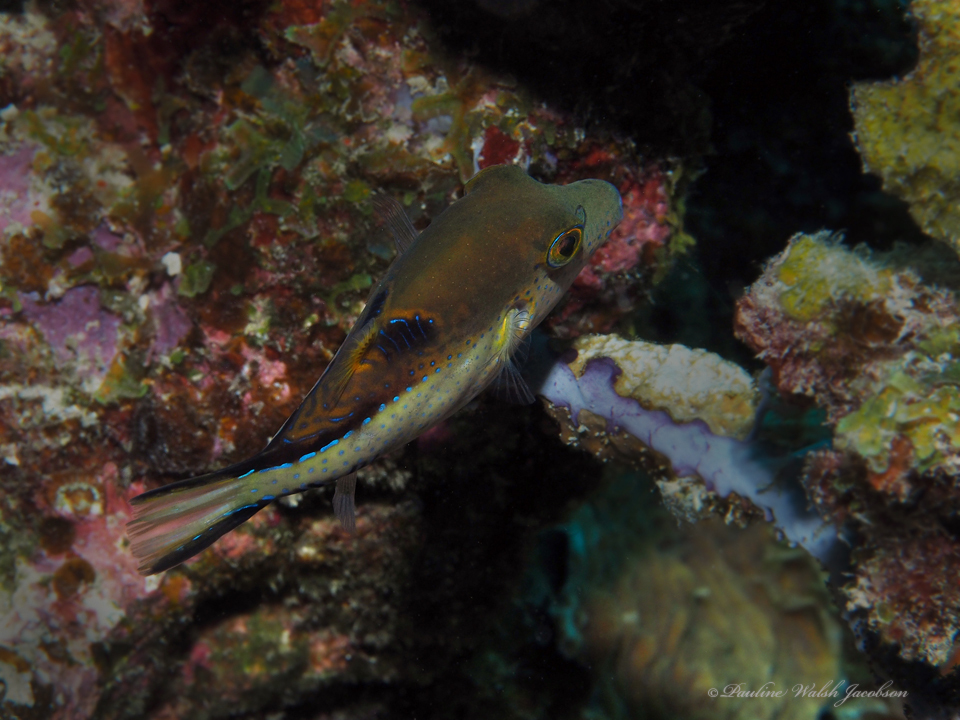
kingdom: Animalia
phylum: Chordata
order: Tetraodontiformes
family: Tetraodontidae
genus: Canthigaster
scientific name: Canthigaster rostrata
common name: Caribbean sharpnose-puffer
